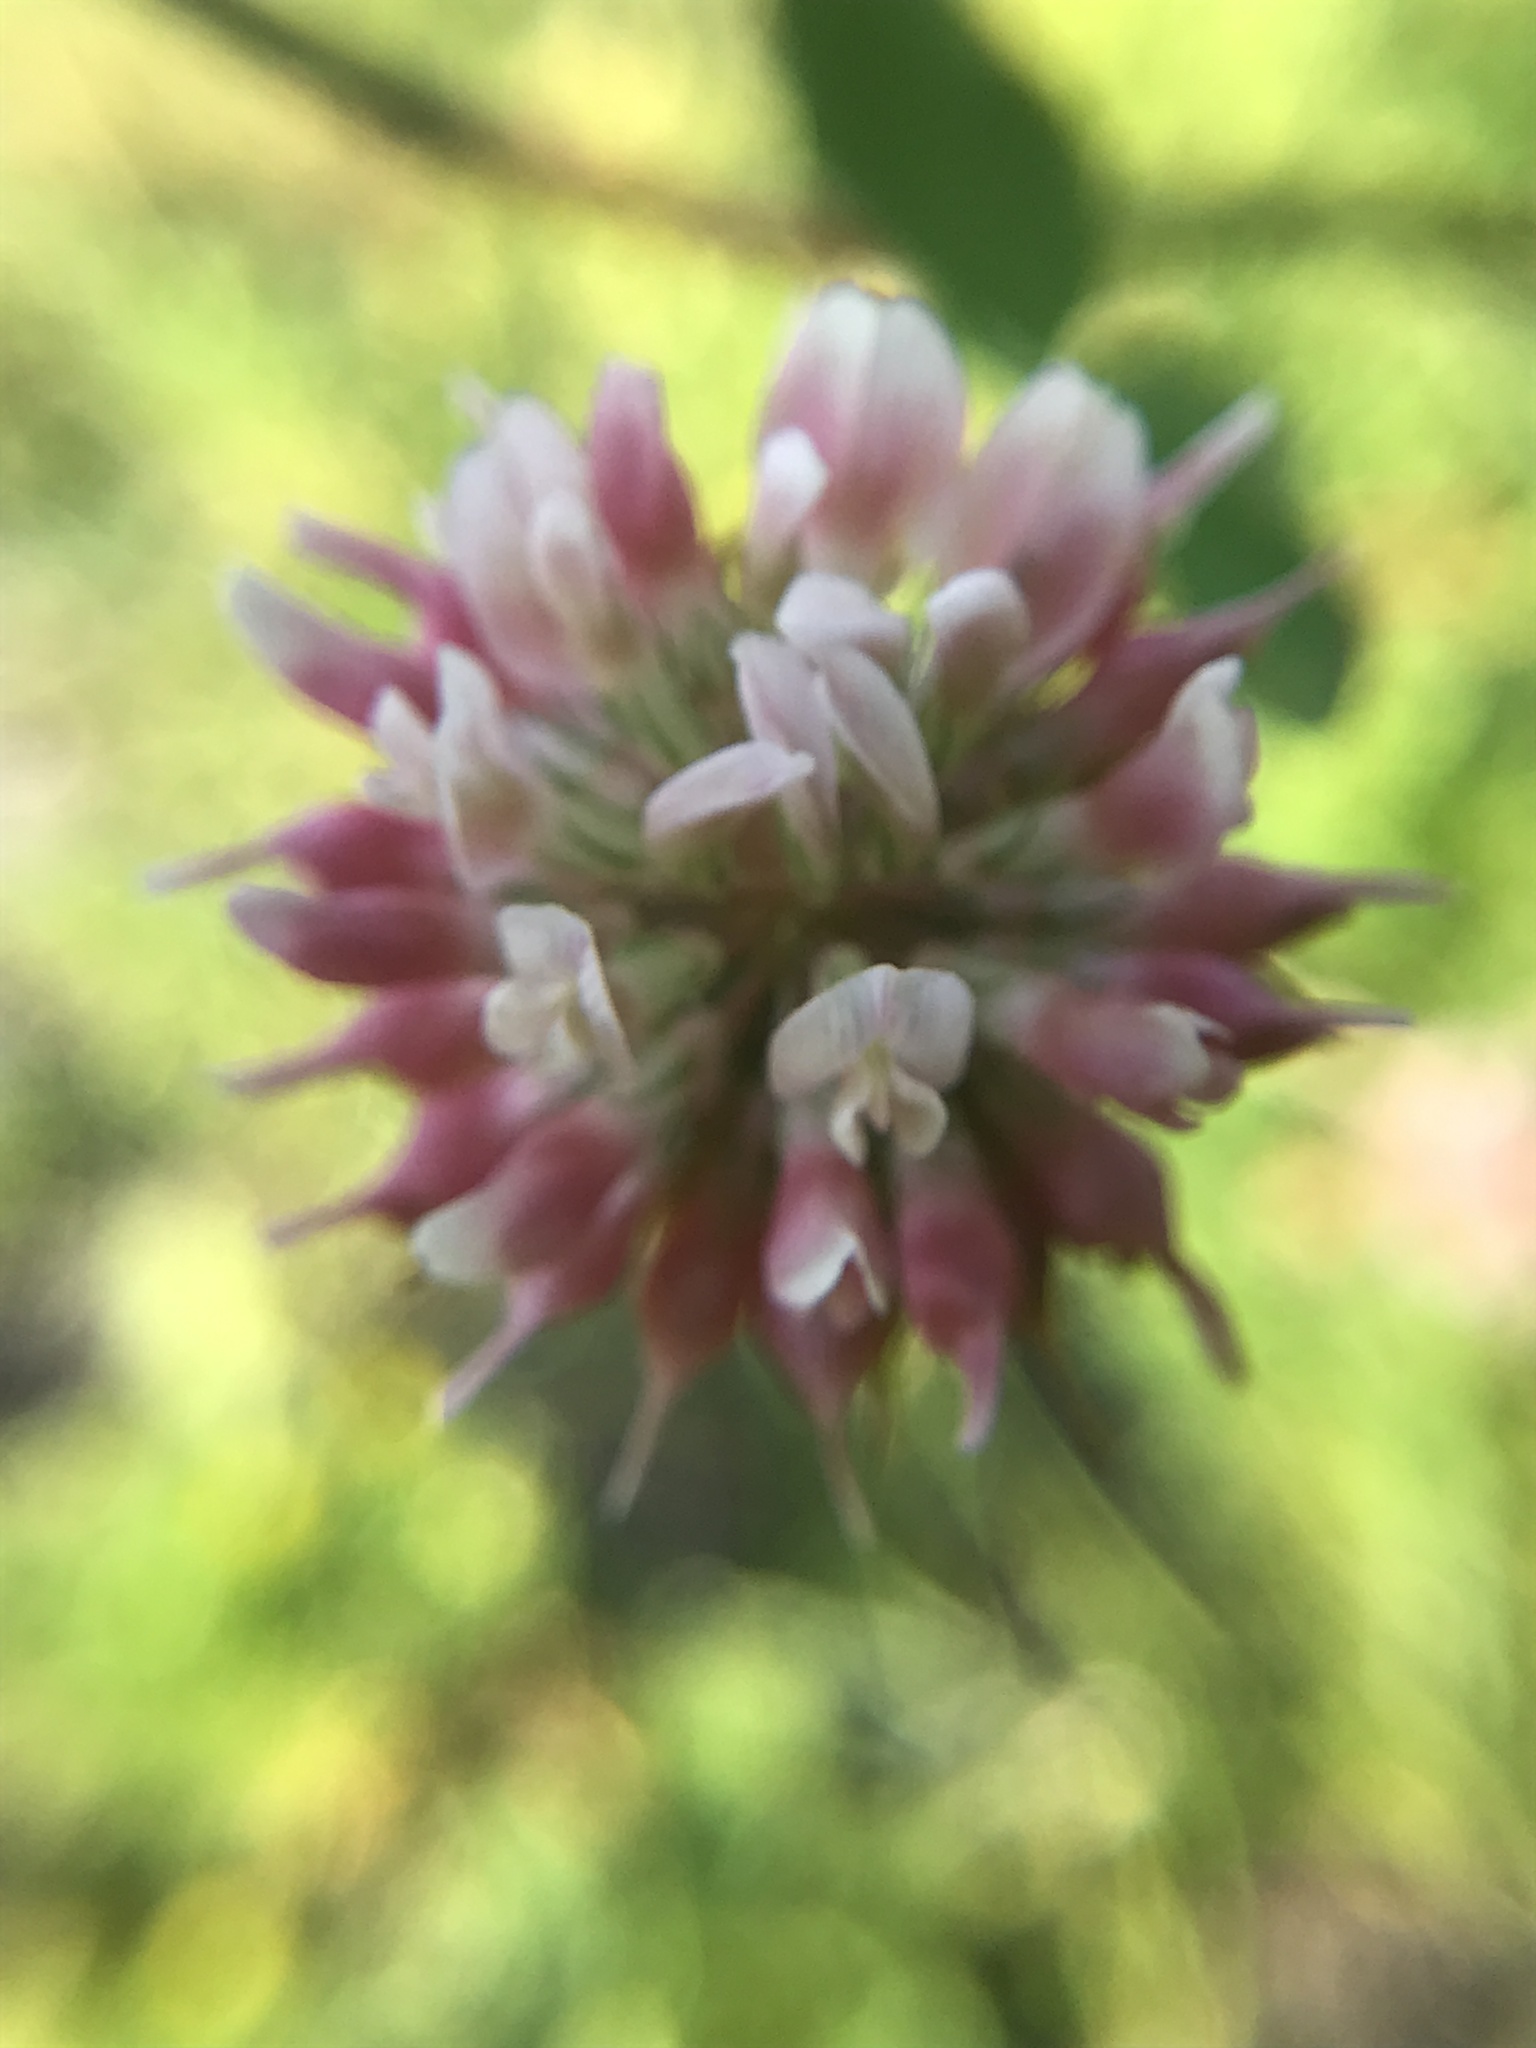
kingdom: Plantae
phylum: Tracheophyta
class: Magnoliopsida
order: Fabales
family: Fabaceae
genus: Trifolium
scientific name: Trifolium hybridum
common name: Alsike clover
